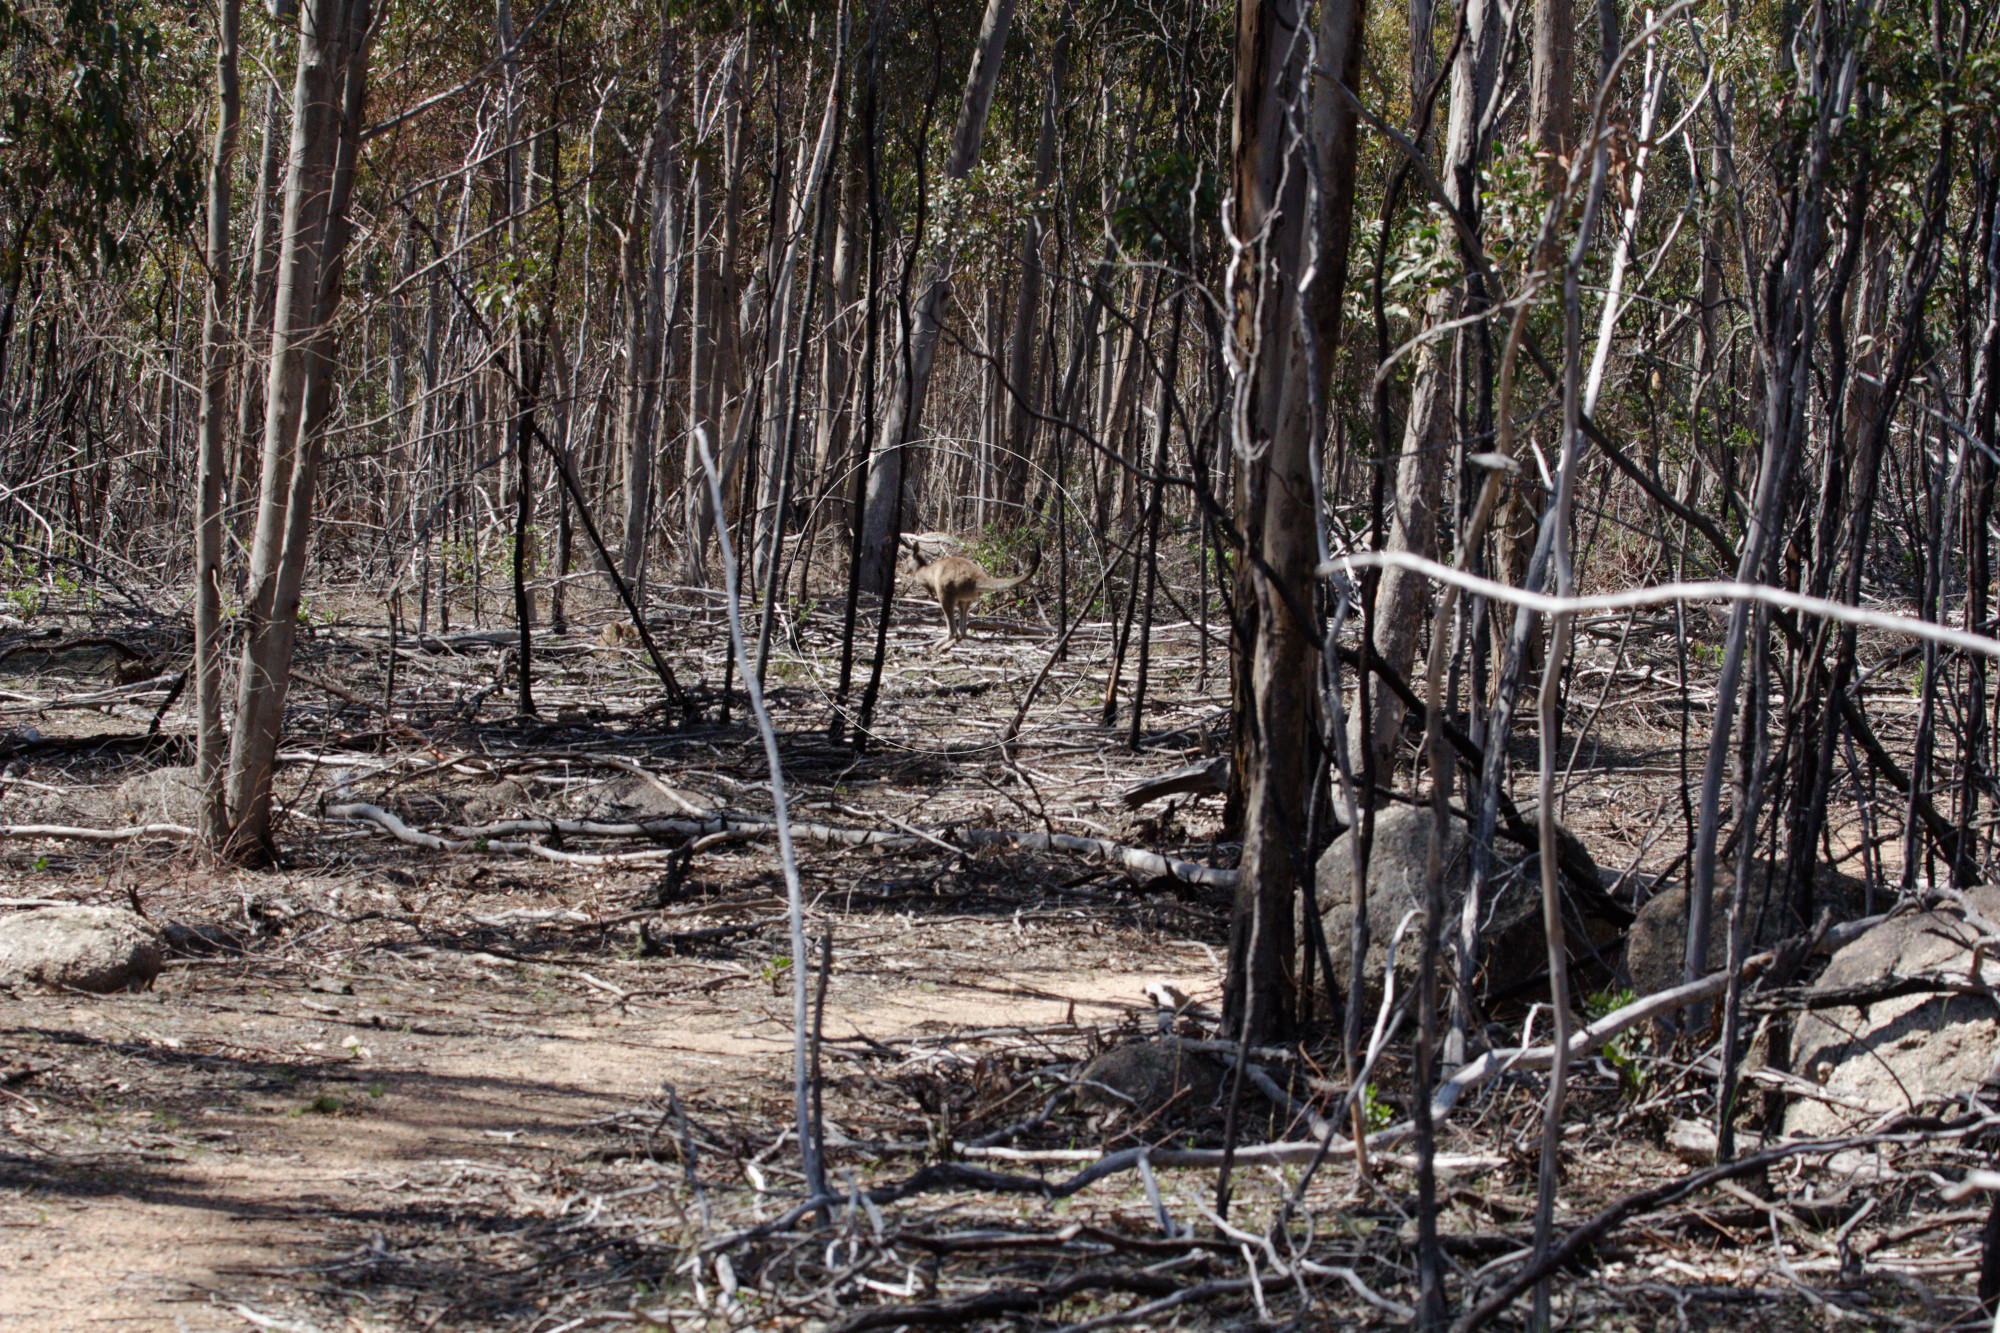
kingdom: Animalia
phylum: Chordata
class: Mammalia
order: Diprotodontia
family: Macropodidae
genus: Macropus
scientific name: Macropus giganteus
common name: Eastern grey kangaroo
